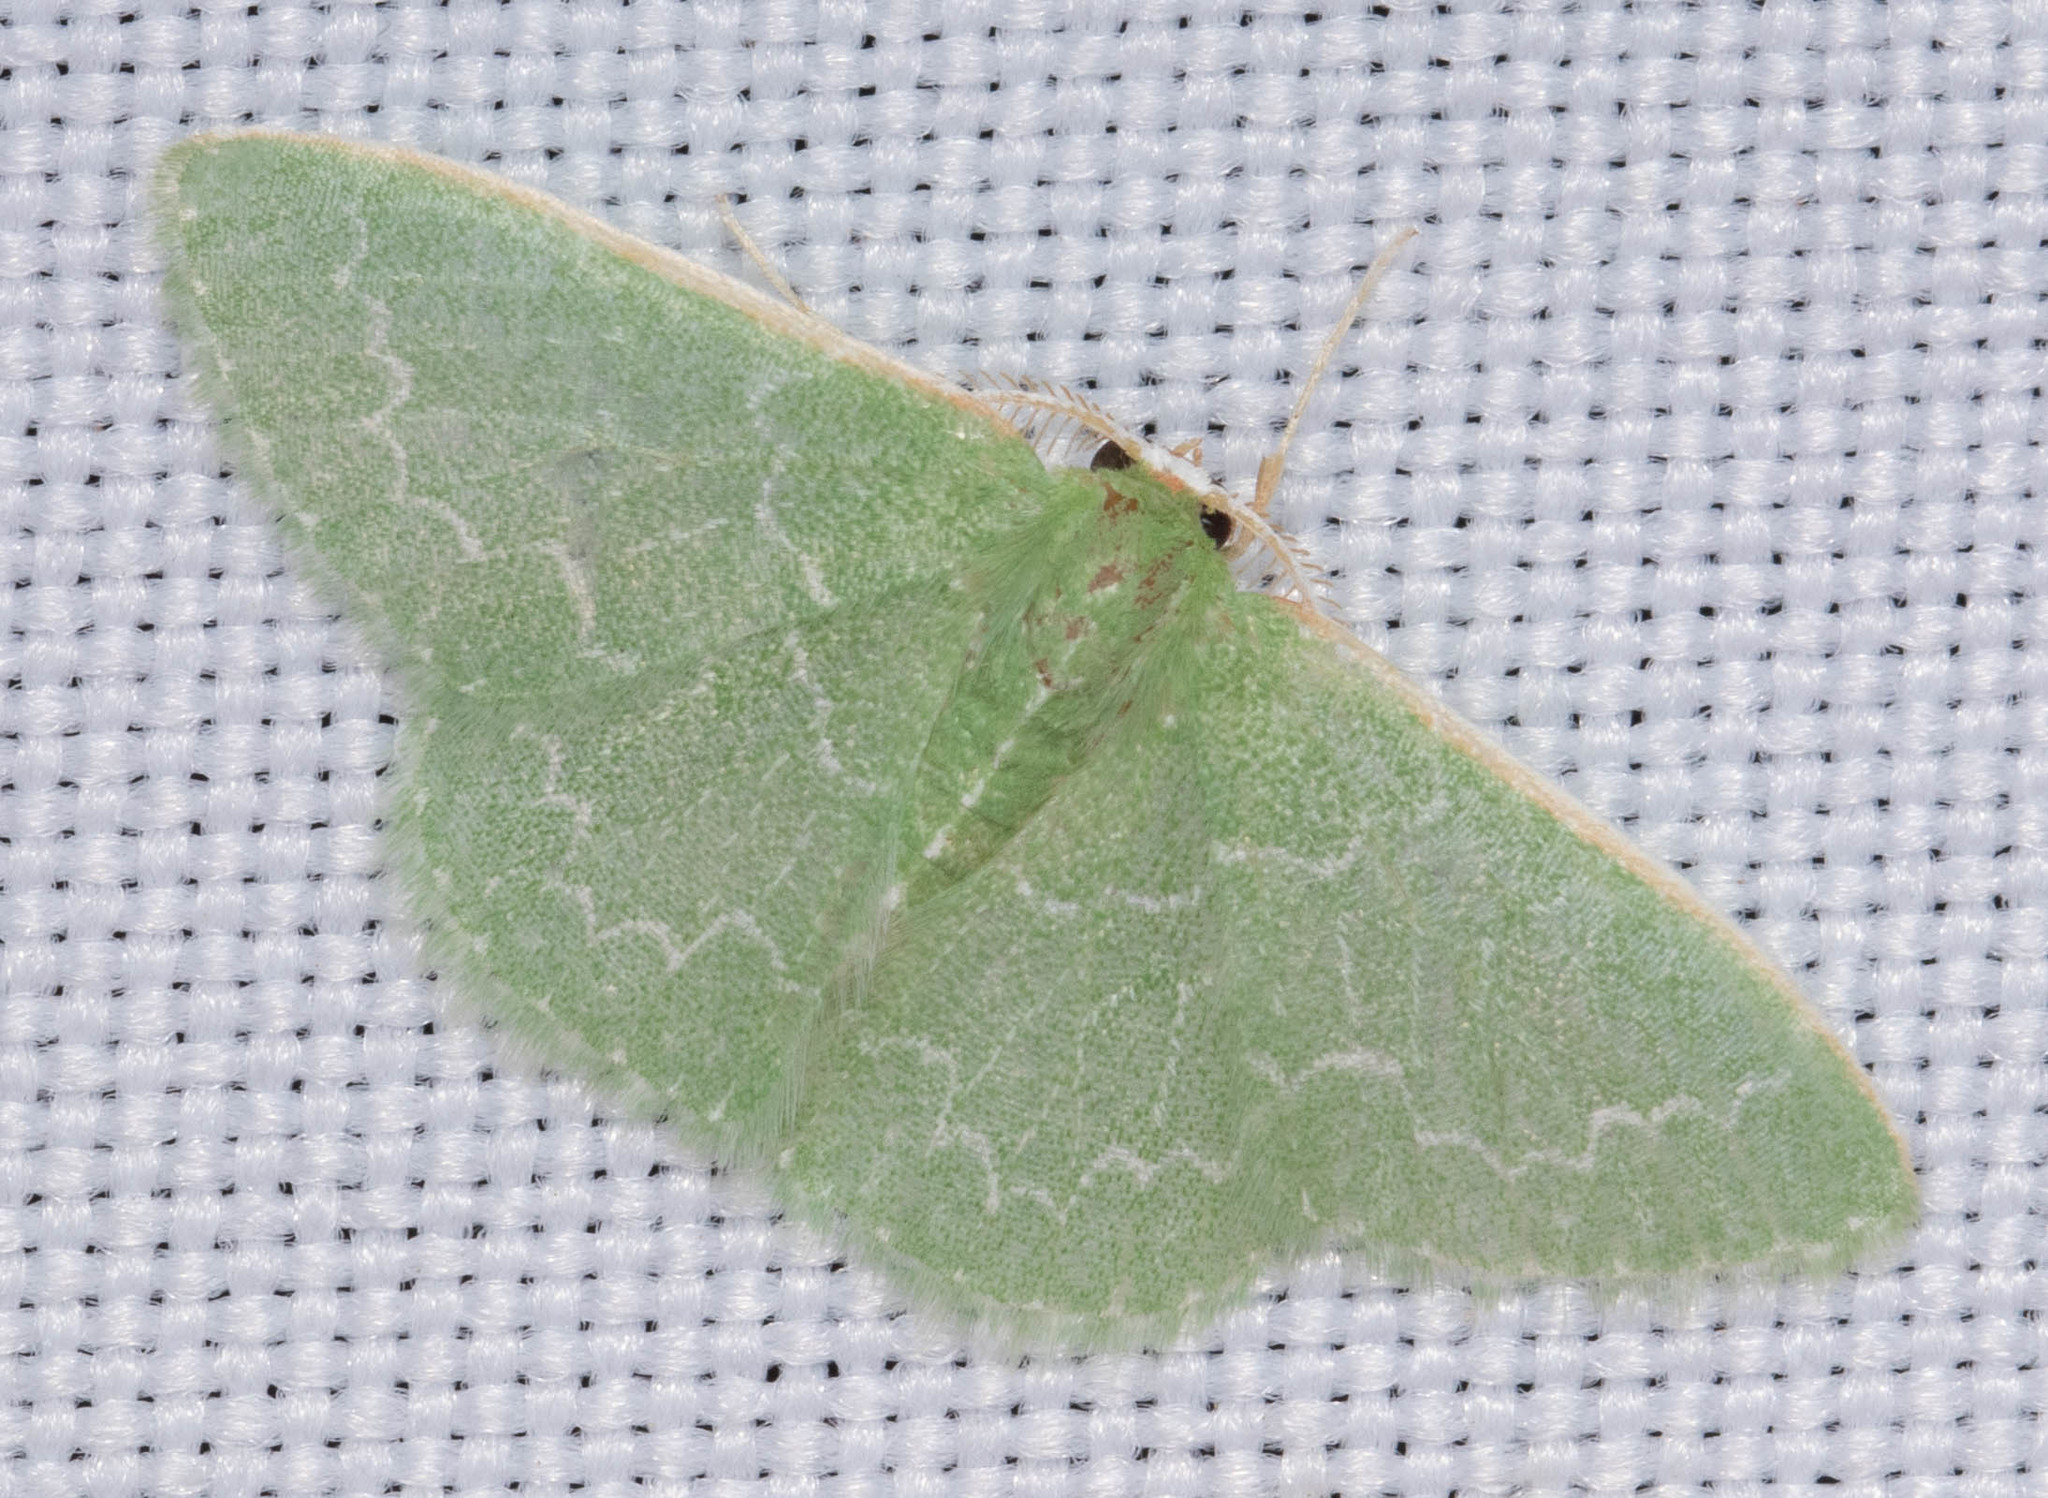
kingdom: Animalia
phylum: Arthropoda
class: Insecta
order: Lepidoptera
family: Geometridae
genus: Synchlora
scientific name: Synchlora frondaria
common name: Southern emerald
